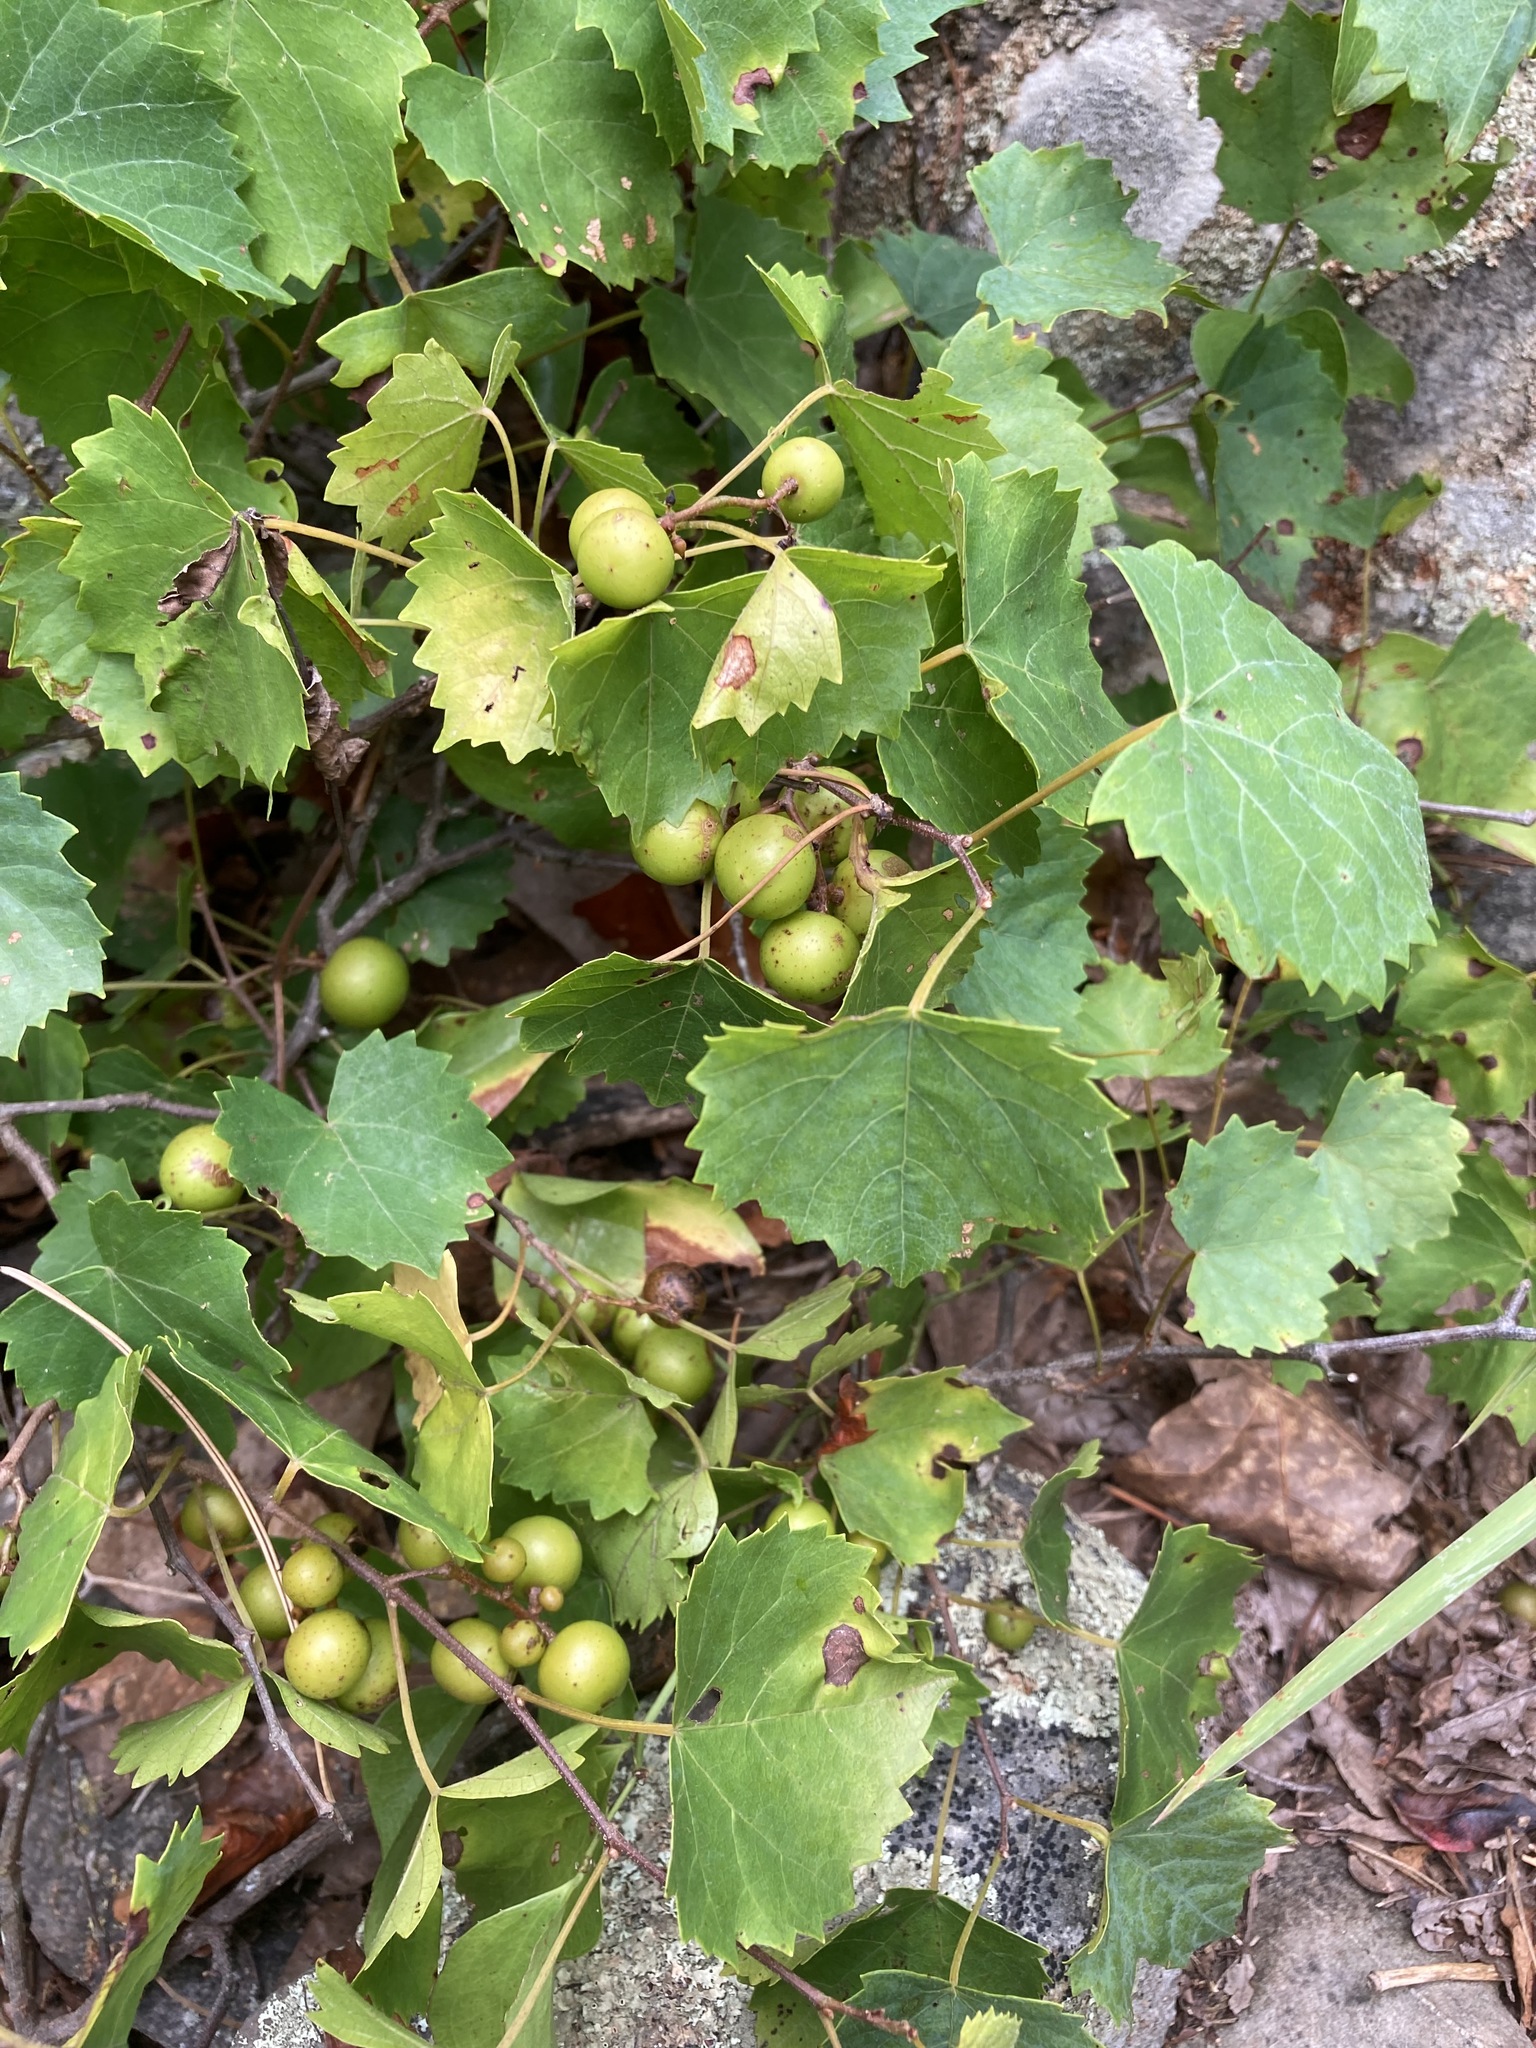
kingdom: Plantae
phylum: Tracheophyta
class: Magnoliopsida
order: Vitales
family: Vitaceae
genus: Vitis
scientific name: Vitis rotundifolia
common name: Muscadine grape
